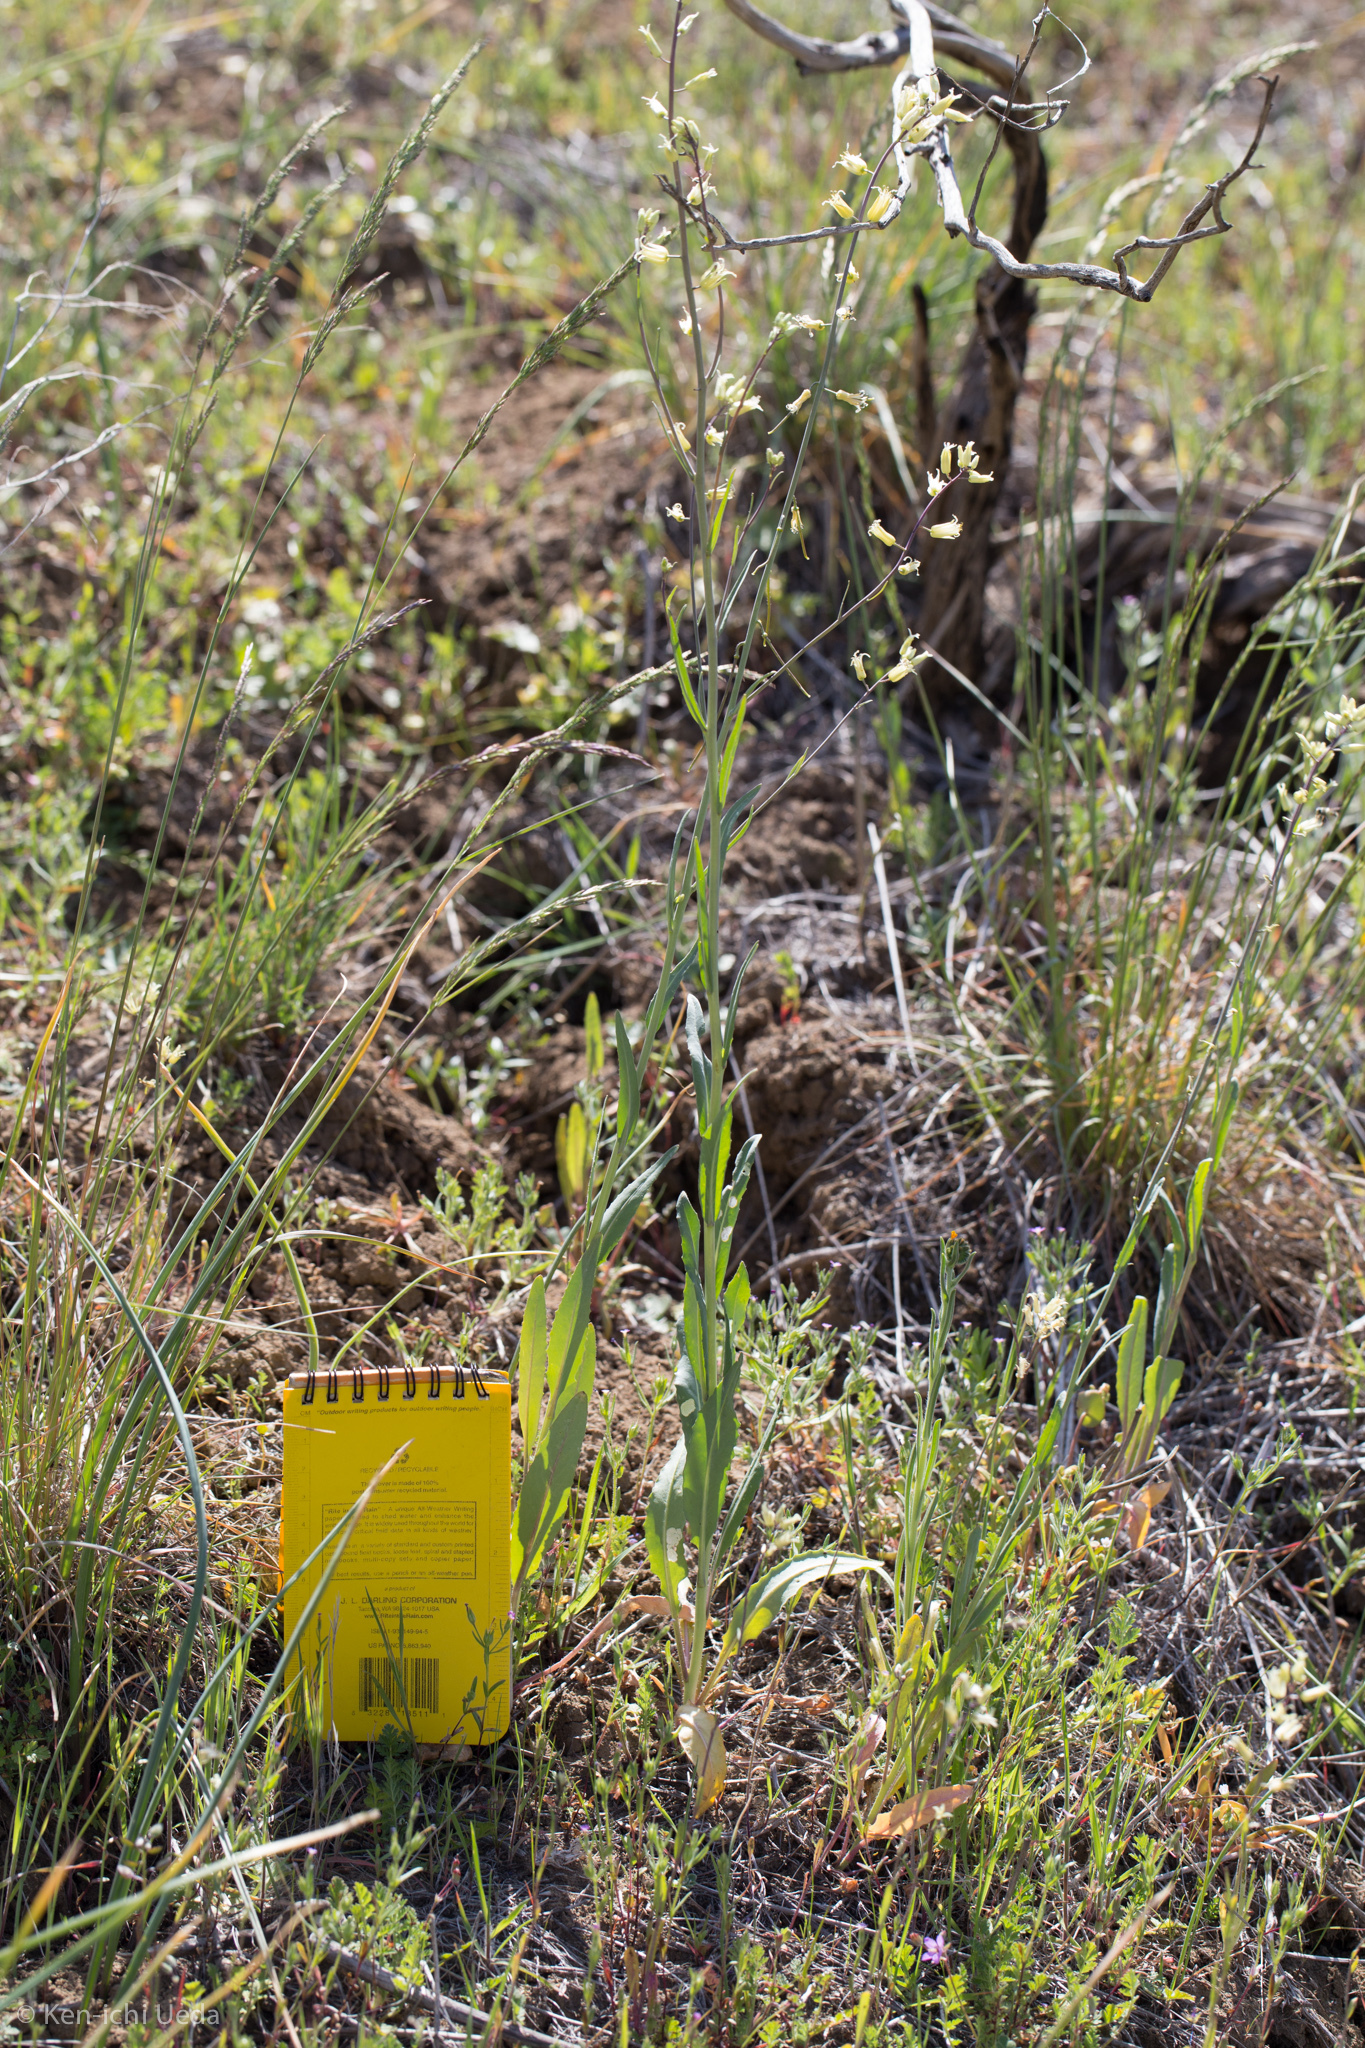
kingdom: Plantae
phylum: Tracheophyta
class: Magnoliopsida
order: Brassicales
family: Brassicaceae
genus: Streptanthus
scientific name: Streptanthus flavescens
